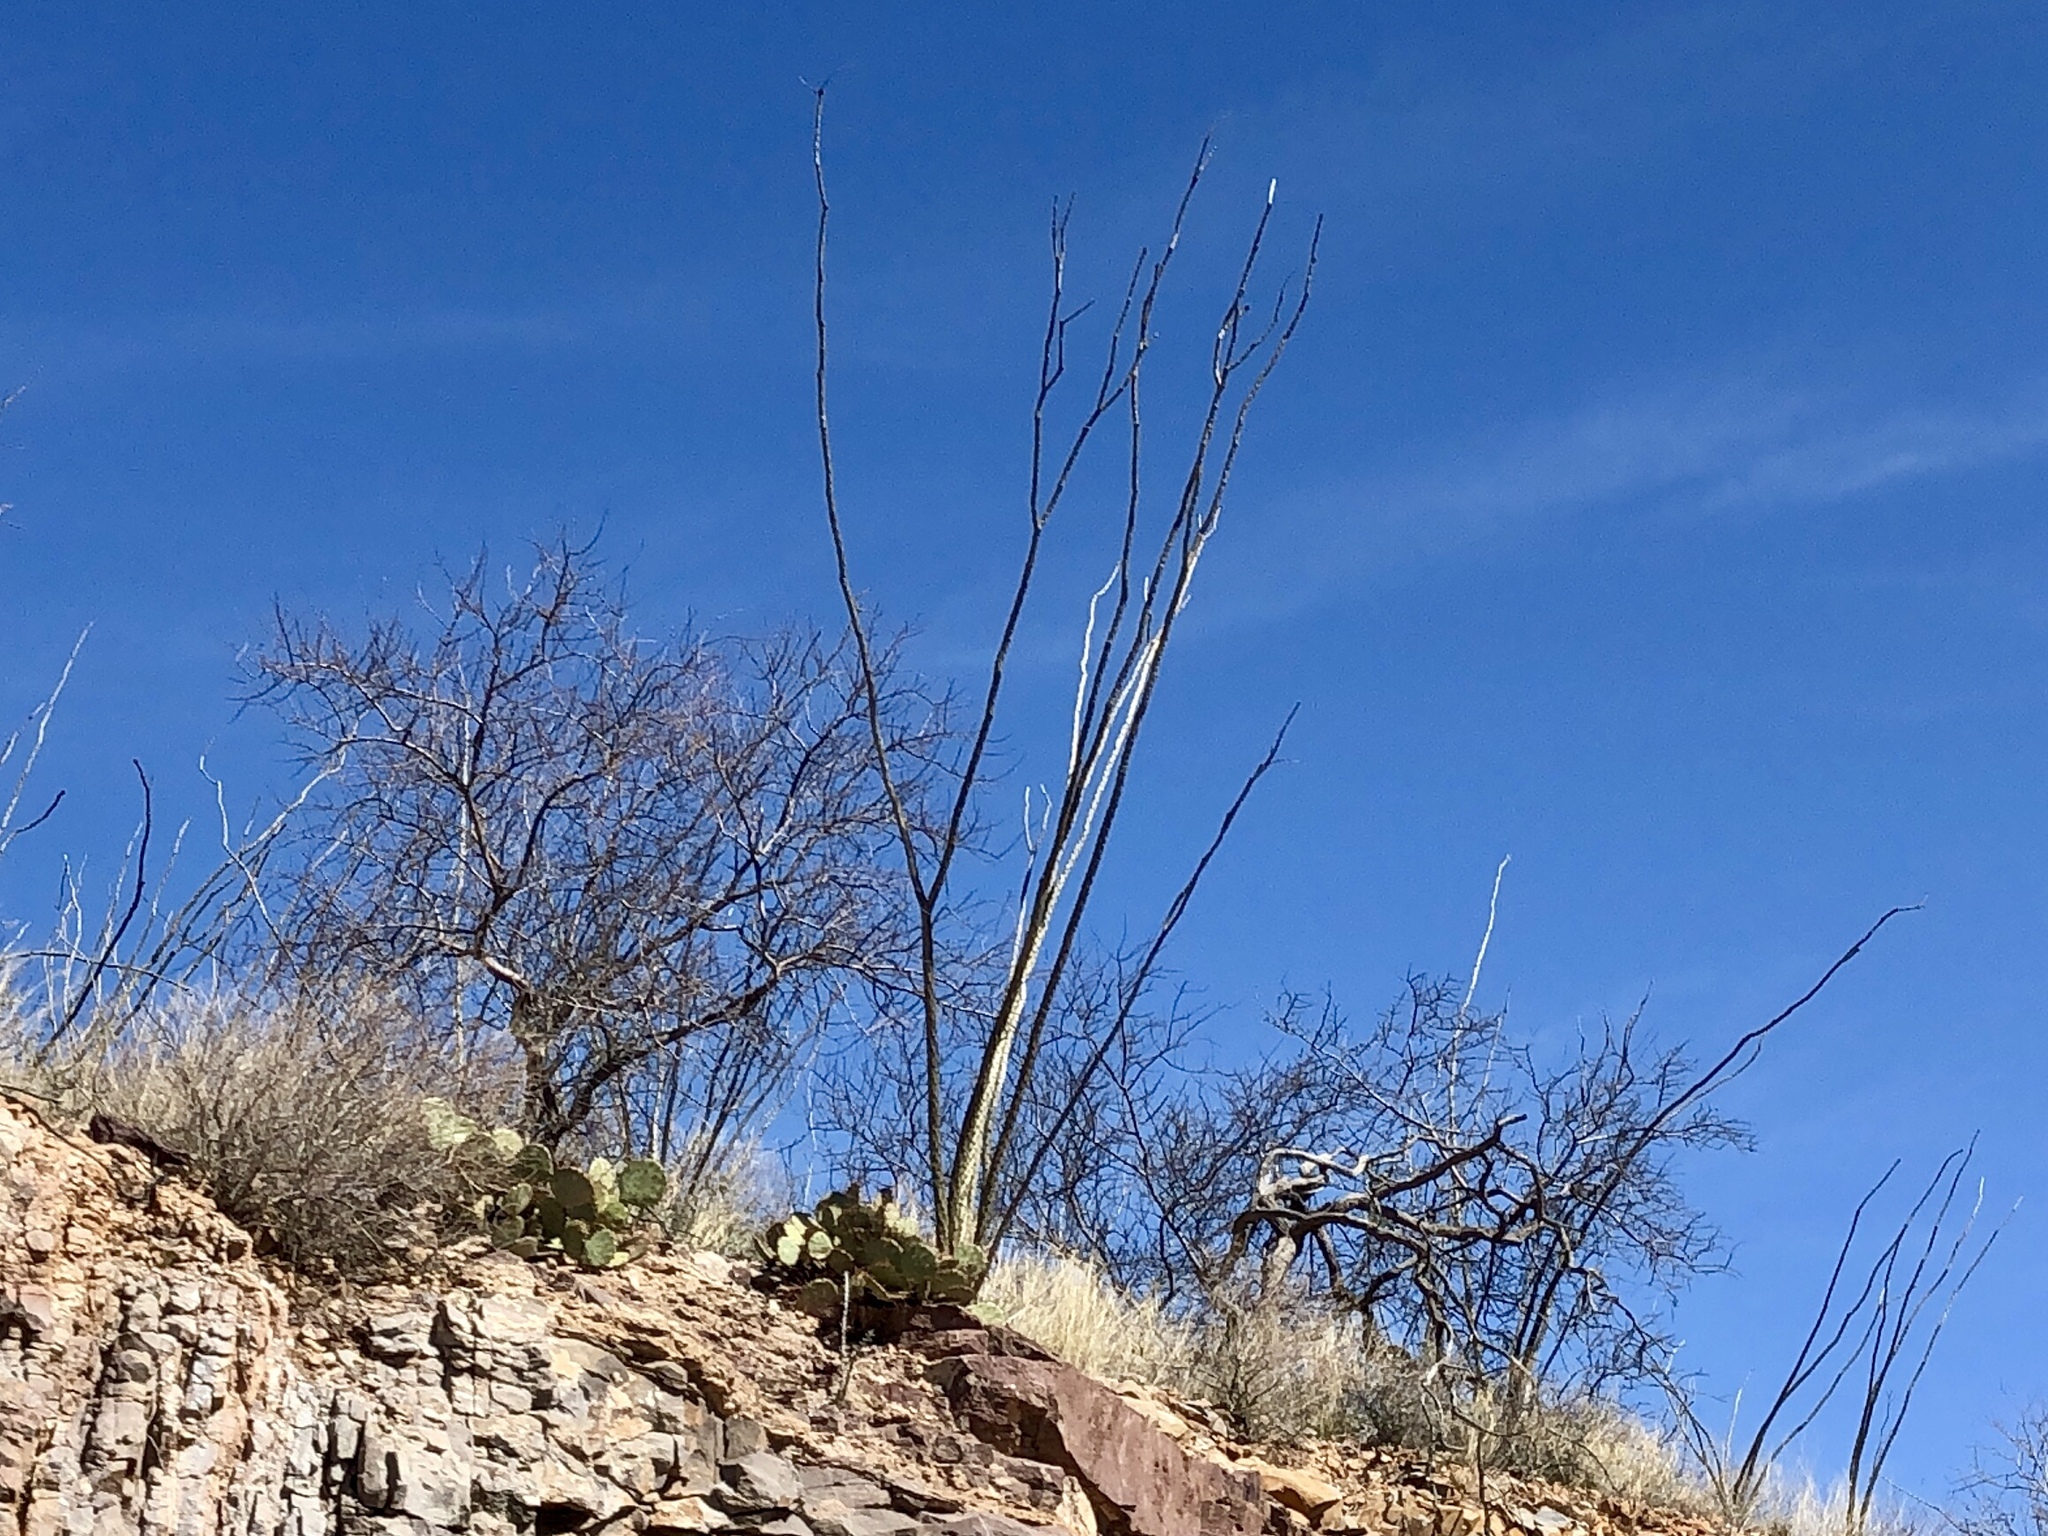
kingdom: Plantae
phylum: Tracheophyta
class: Magnoliopsida
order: Ericales
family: Fouquieriaceae
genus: Fouquieria
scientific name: Fouquieria splendens
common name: Vine-cactus
